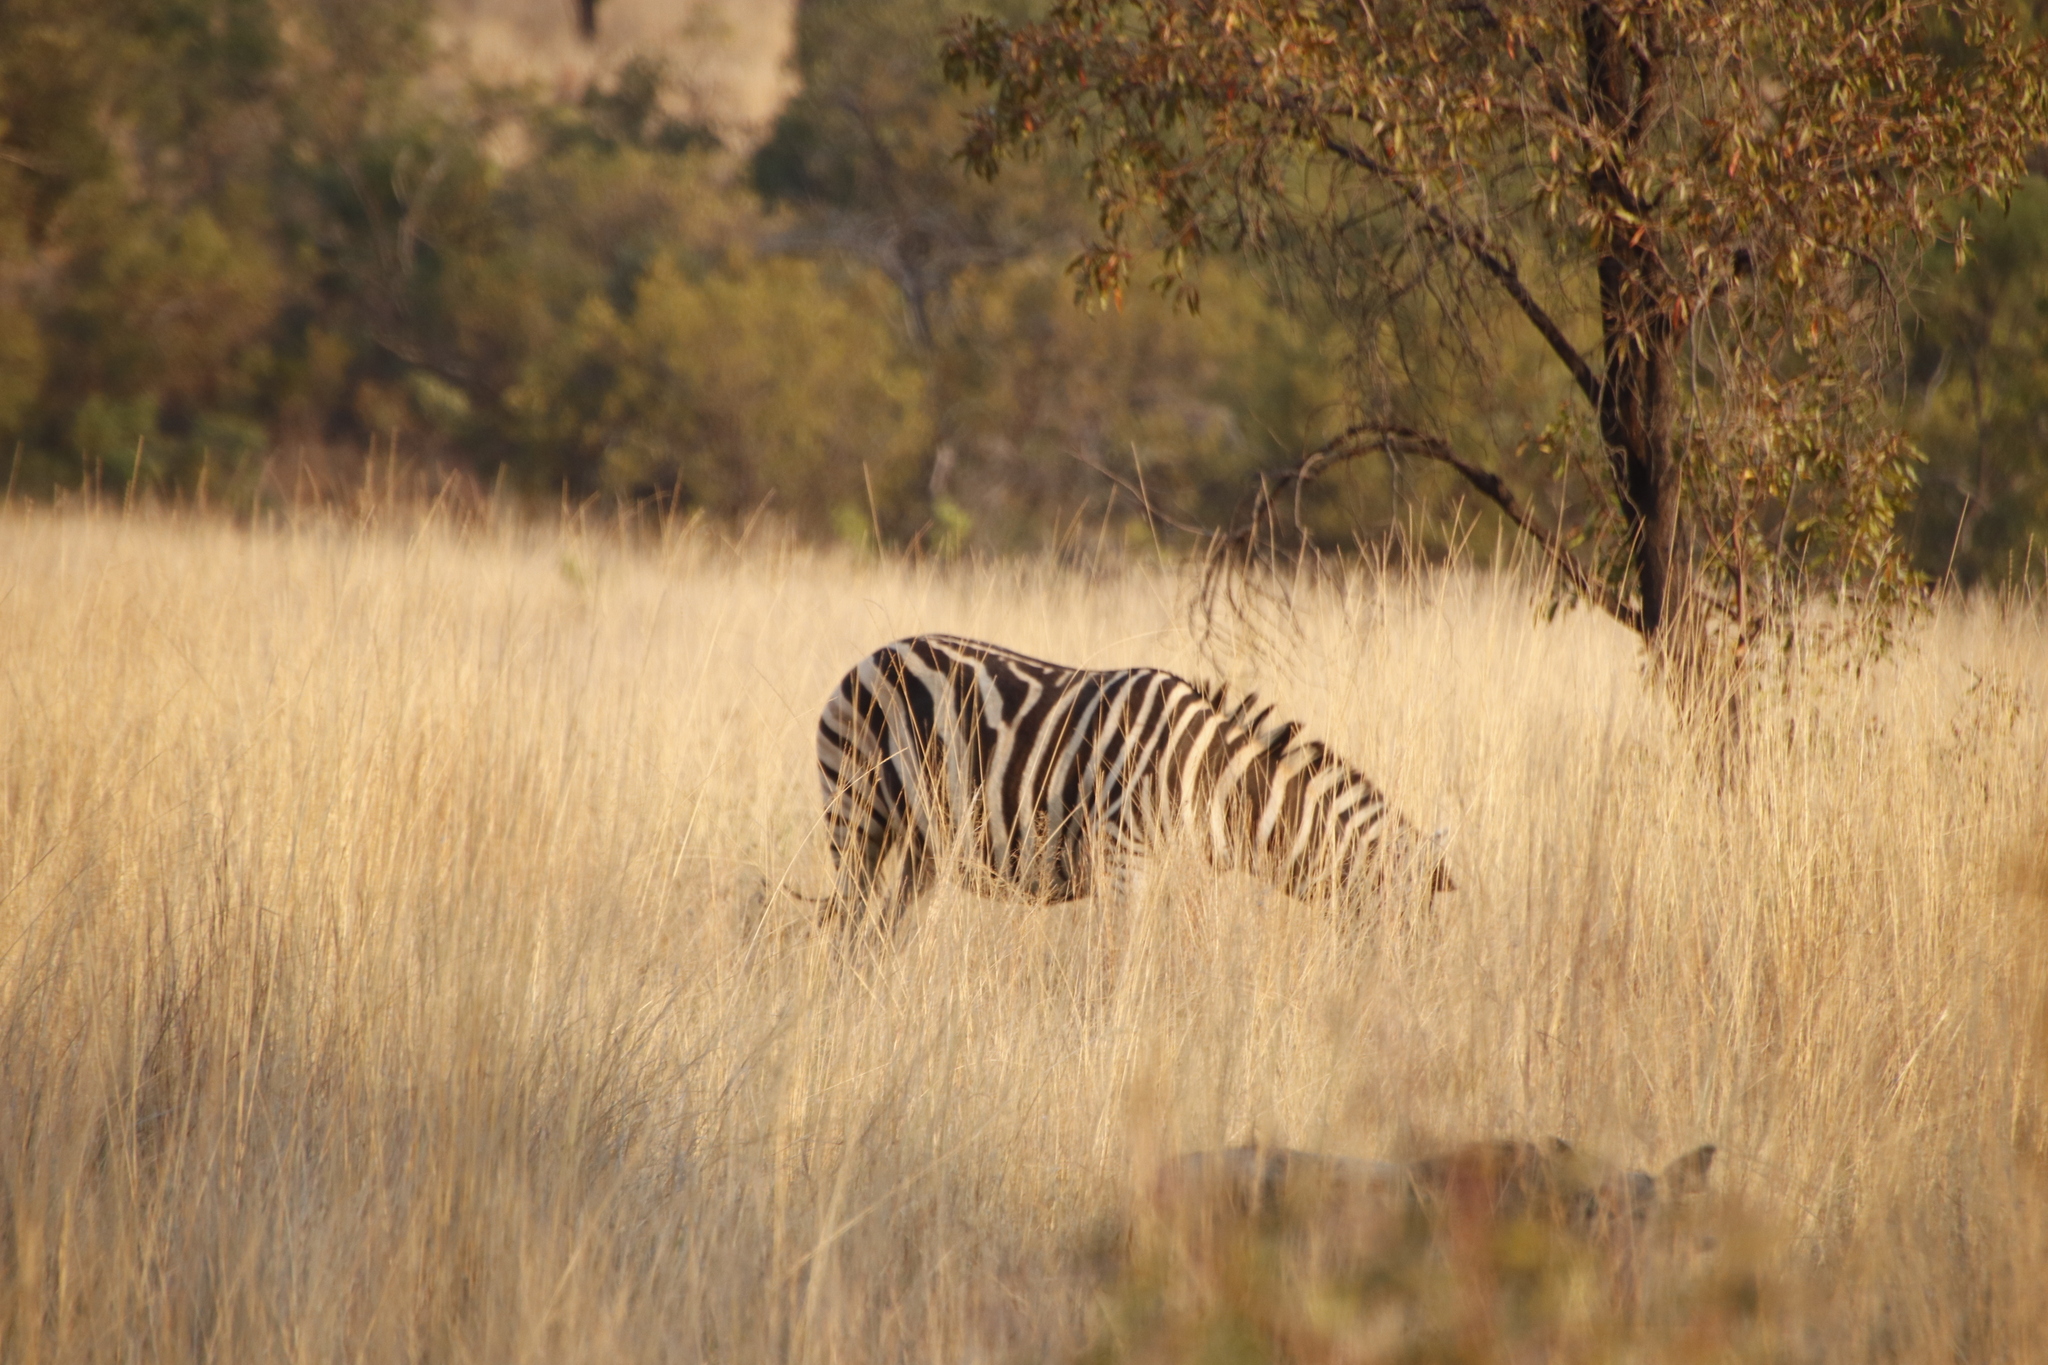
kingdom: Animalia
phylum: Chordata
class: Mammalia
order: Perissodactyla
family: Equidae
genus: Equus
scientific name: Equus quagga
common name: Plains zebra
